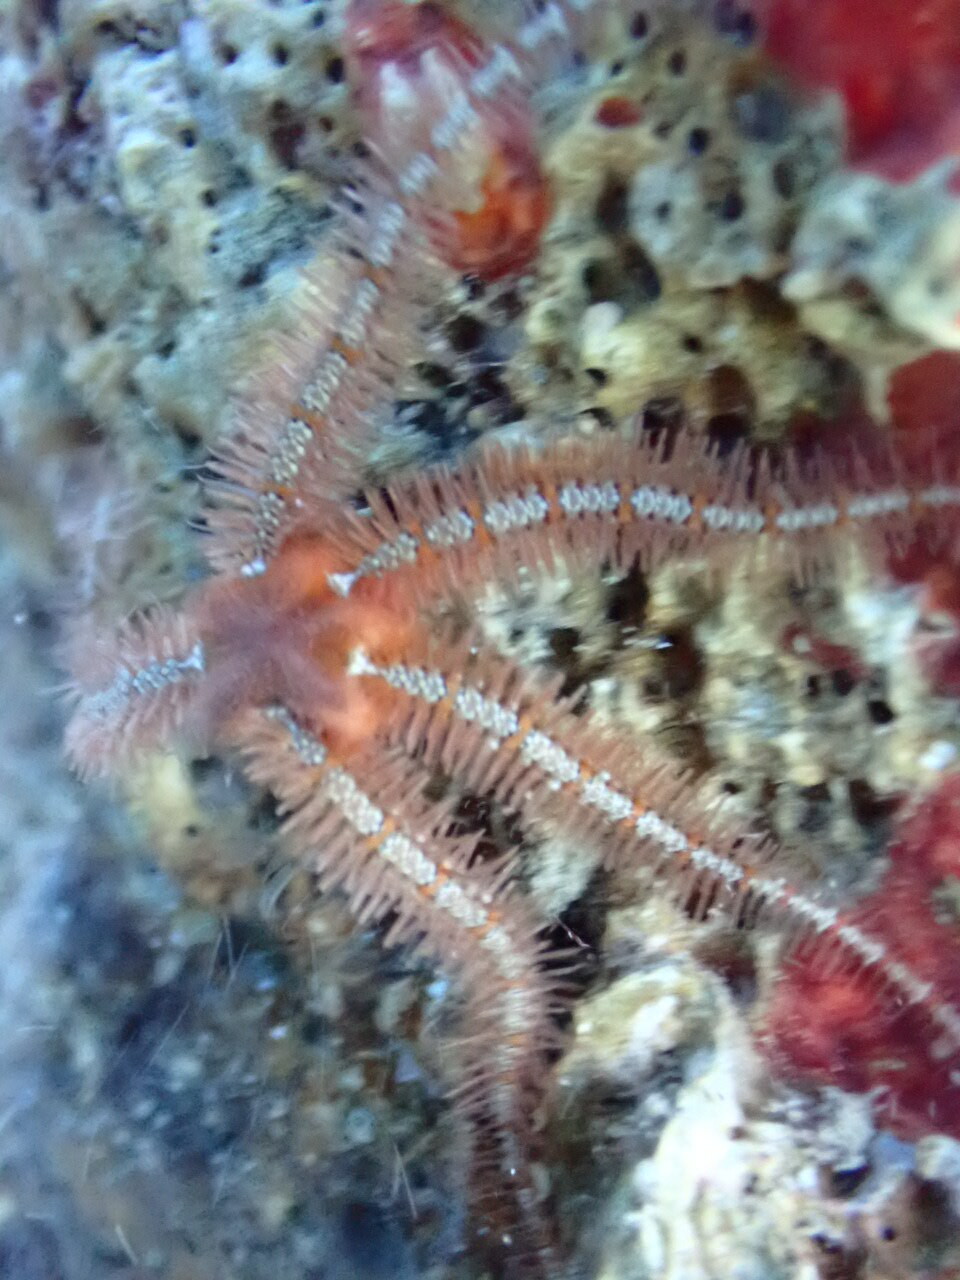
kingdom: Animalia
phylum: Echinodermata
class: Ophiuroidea
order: Amphilepidida
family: Ophiotrichidae
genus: Ophiothrix
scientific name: Ophiothrix fragilis
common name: Common brittlestar
